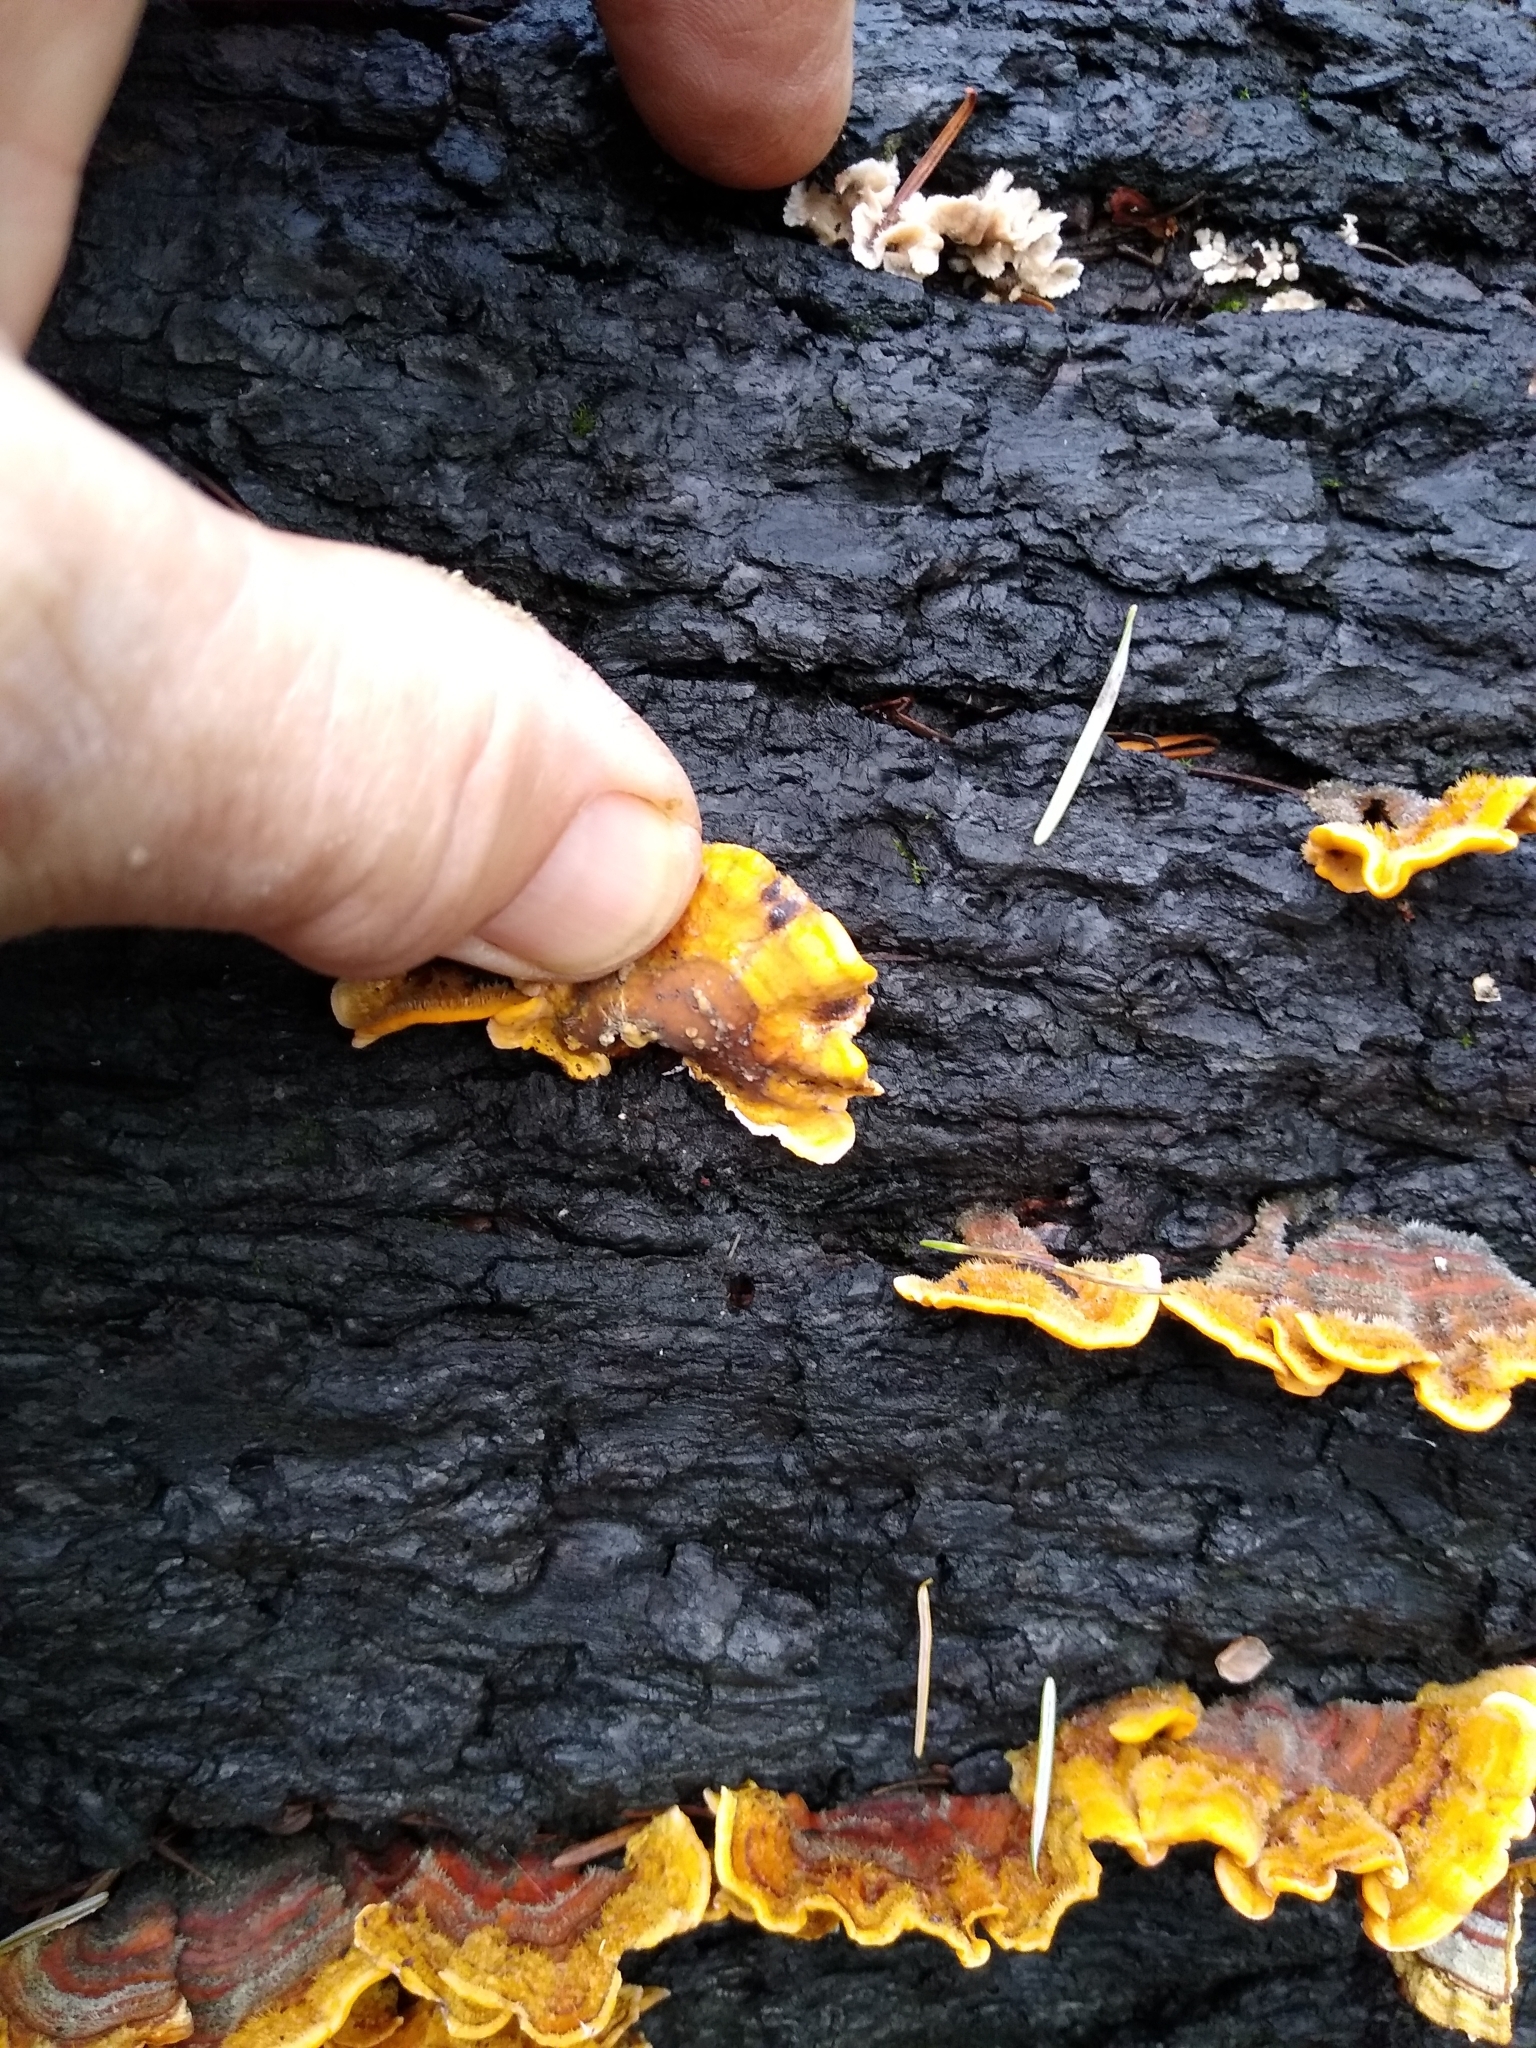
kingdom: Fungi
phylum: Basidiomycota
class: Agaricomycetes
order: Russulales
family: Stereaceae
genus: Stereum
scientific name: Stereum hirsutum
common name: Hairy curtain crust
